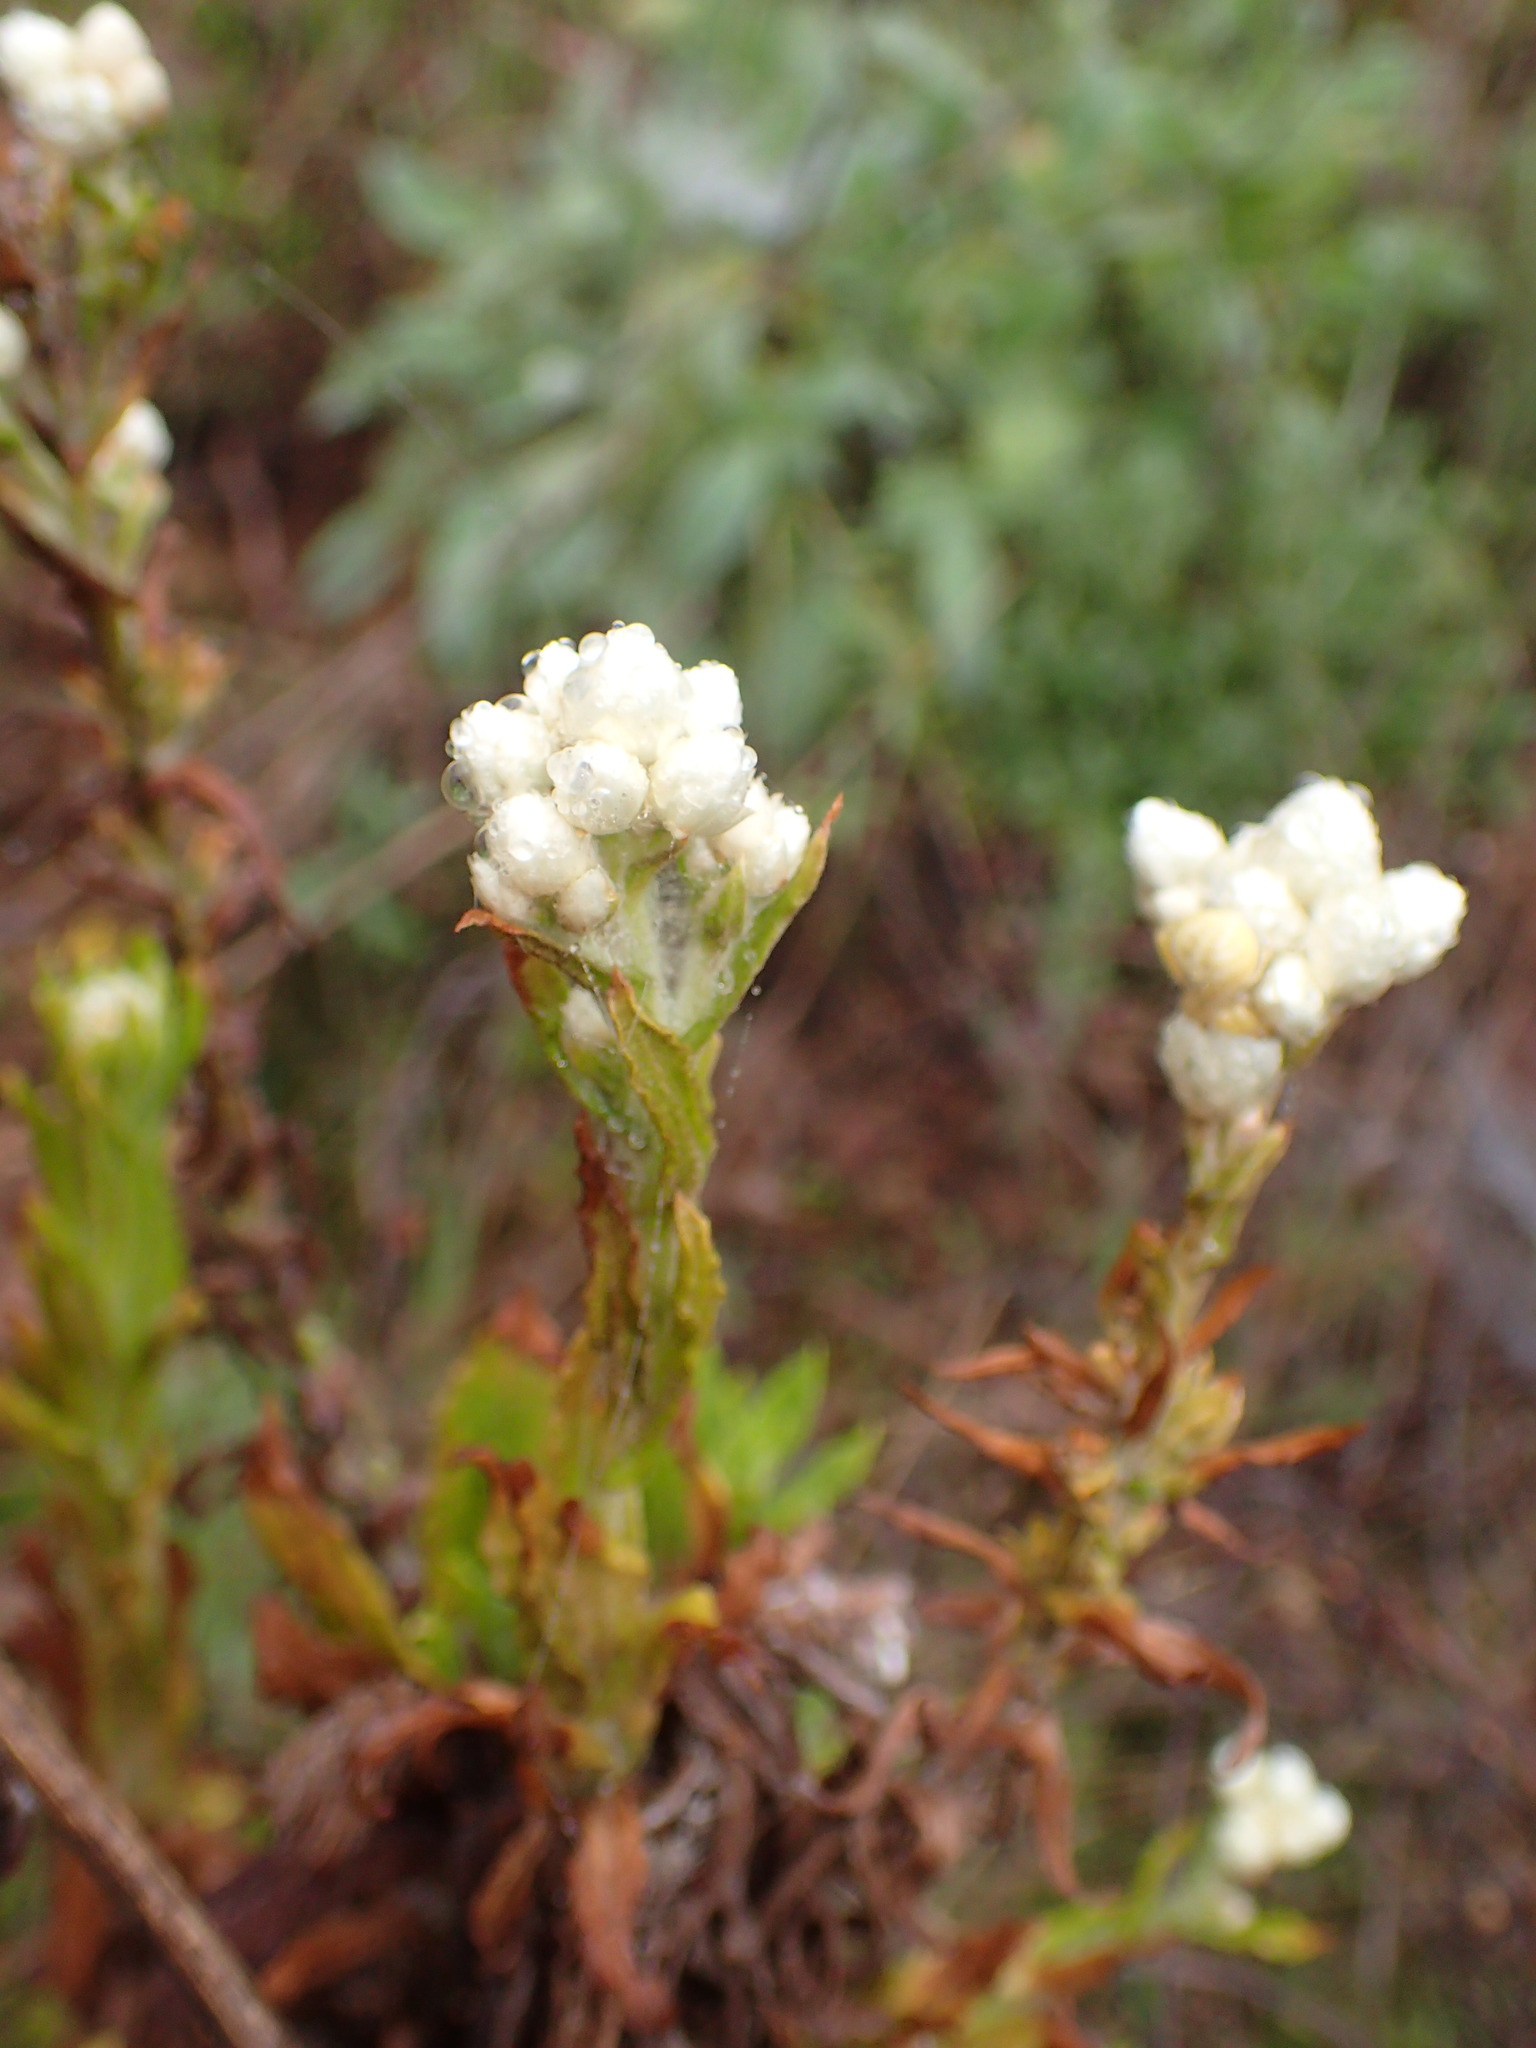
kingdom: Plantae
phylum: Tracheophyta
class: Magnoliopsida
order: Asterales
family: Asteraceae
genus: Pseudognaphalium
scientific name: Pseudognaphalium californicum
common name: California rabbit-tobacco
